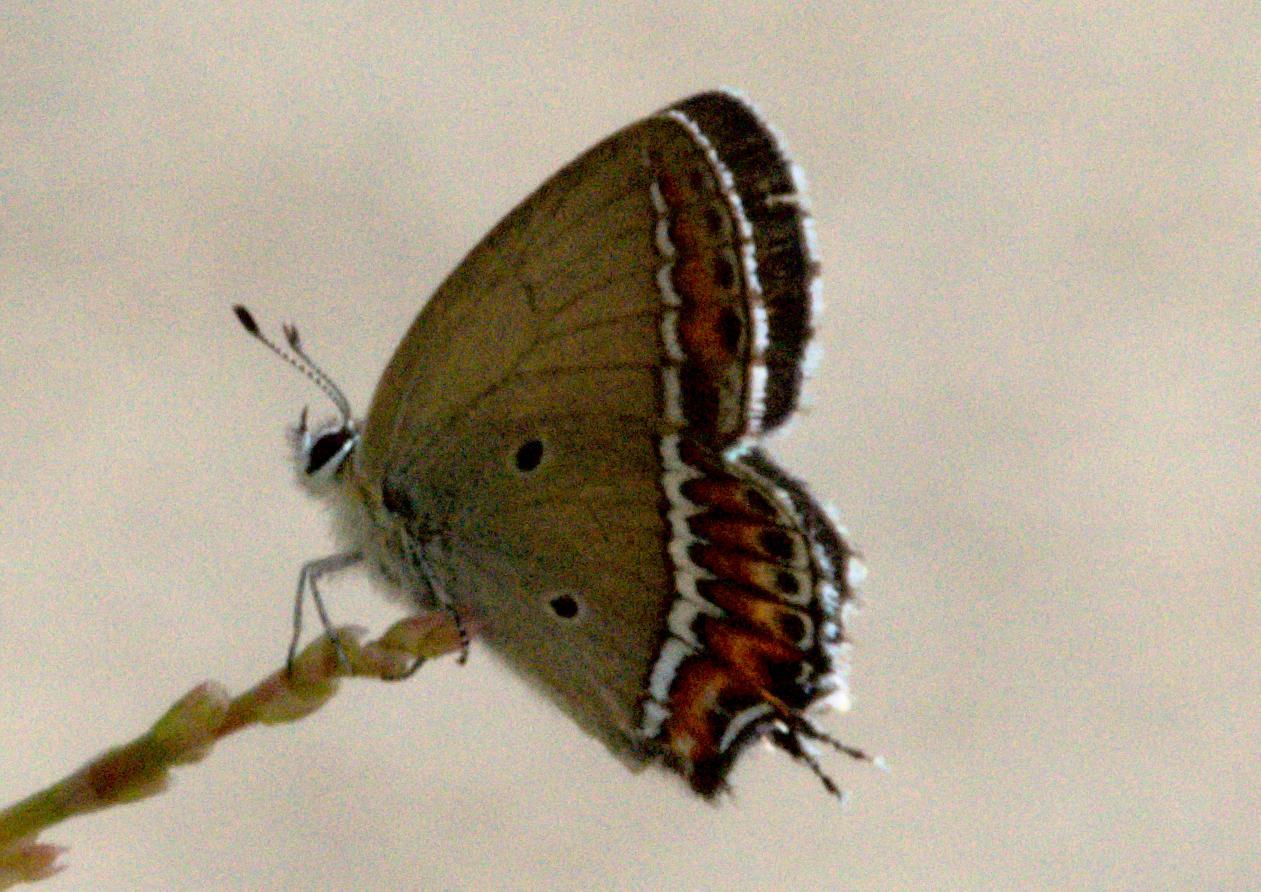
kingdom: Animalia
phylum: Arthropoda
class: Insecta
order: Lepidoptera
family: Lycaenidae
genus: Heliophorus
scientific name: Heliophorus sena
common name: Sorrel sapphire
